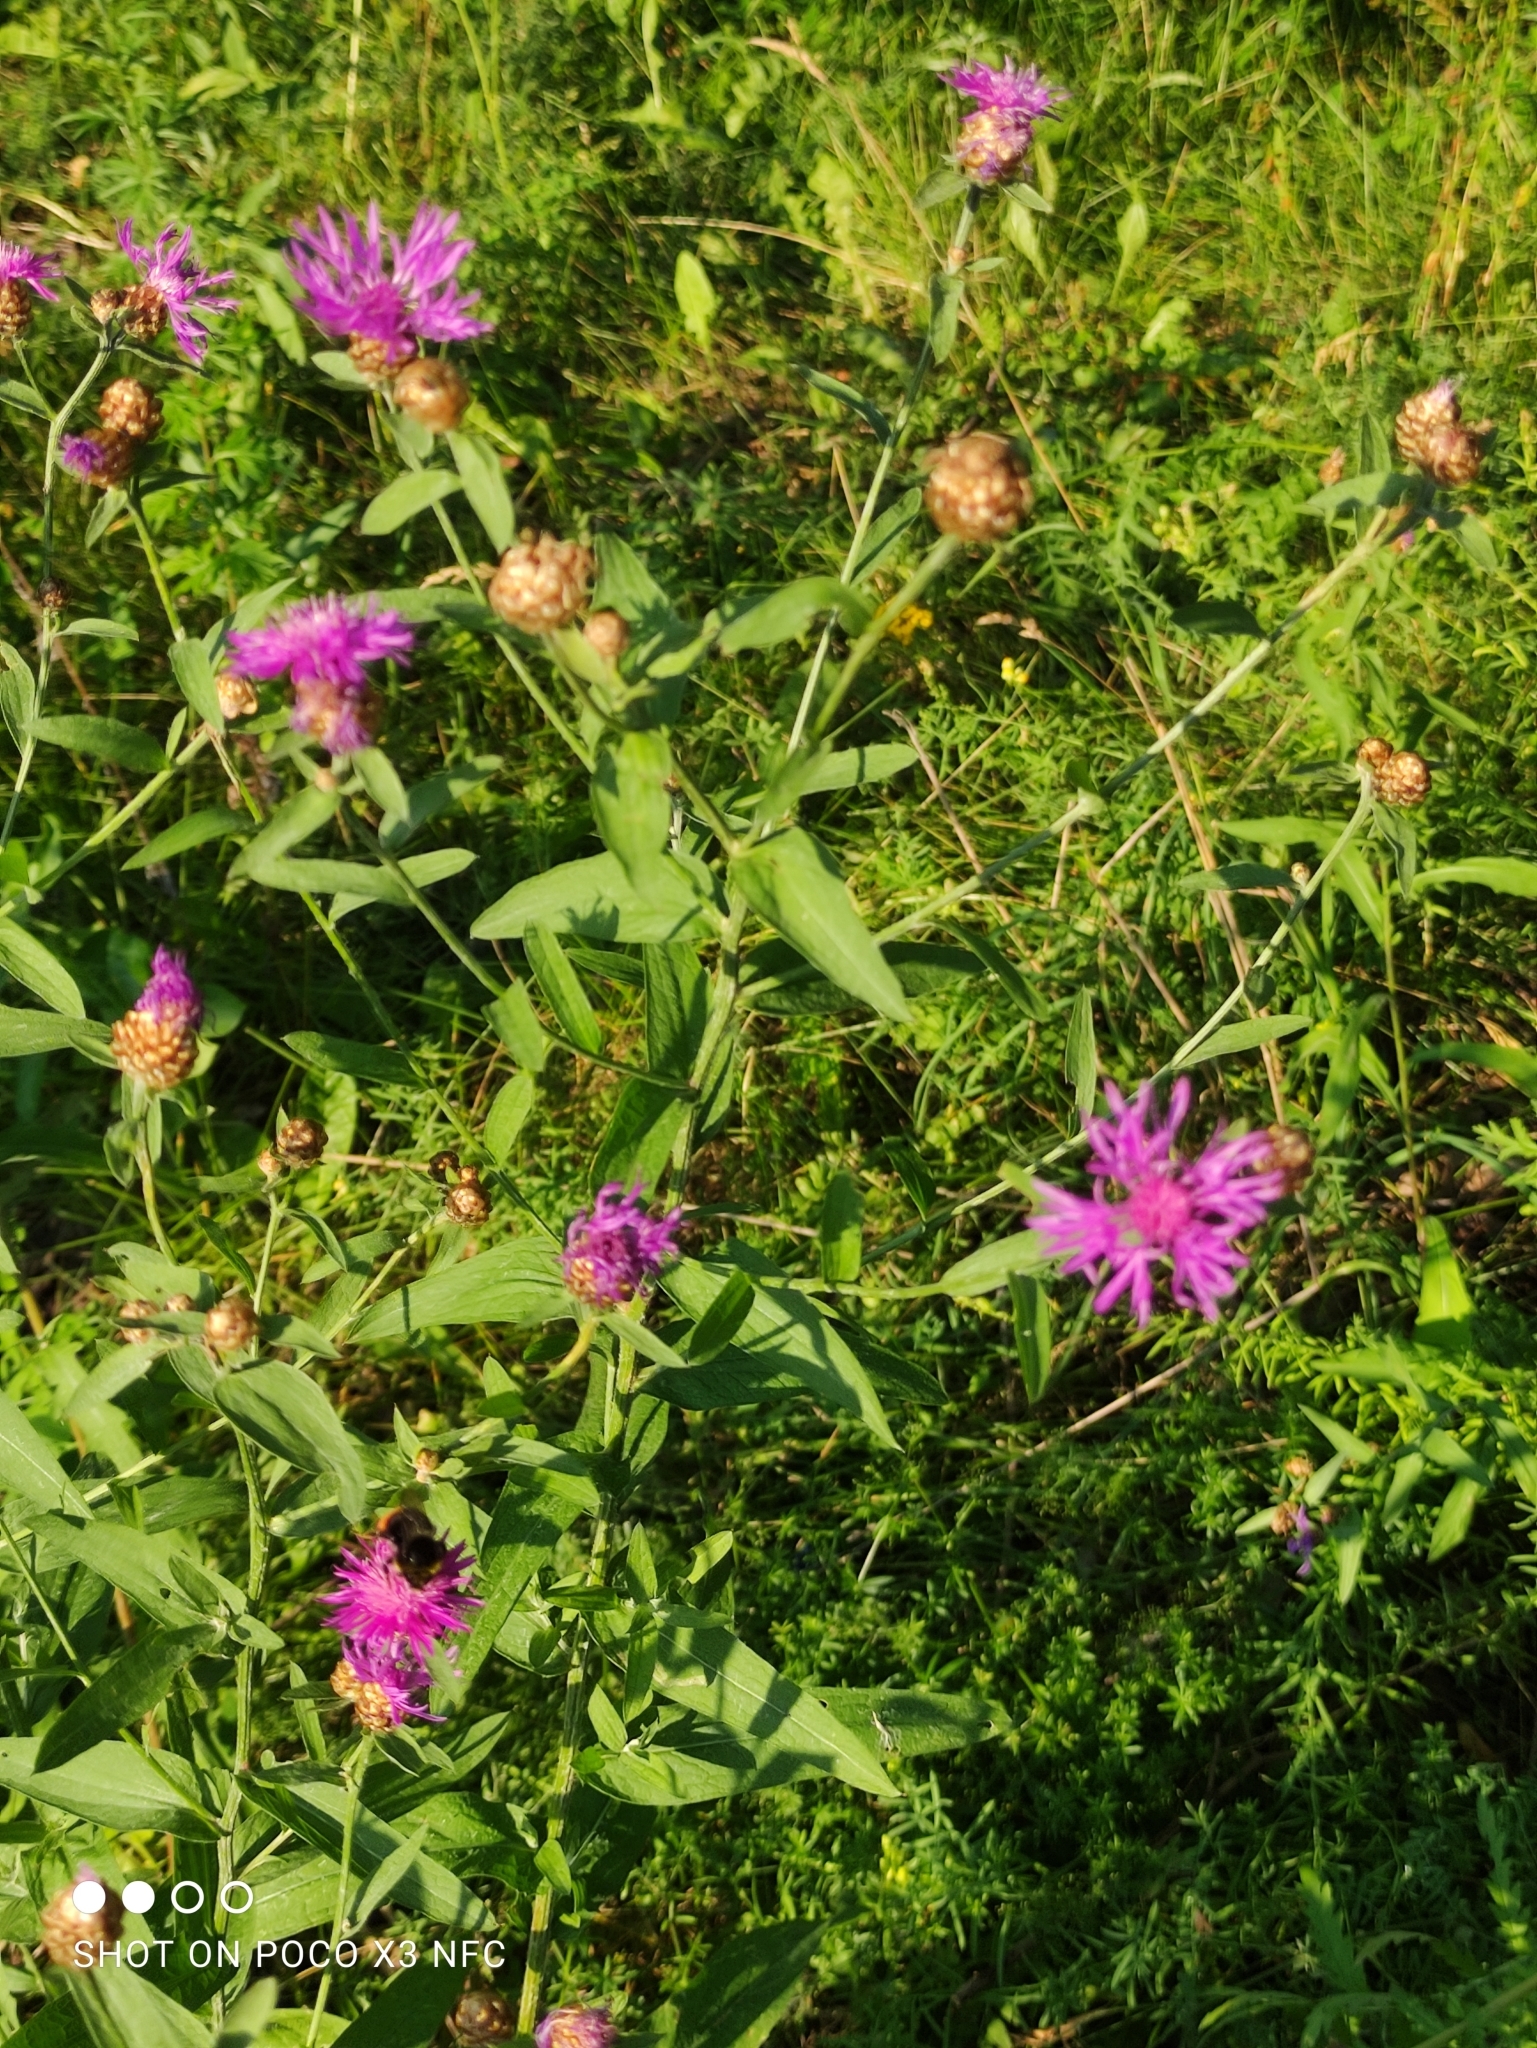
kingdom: Plantae
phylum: Tracheophyta
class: Magnoliopsida
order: Asterales
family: Asteraceae
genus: Centaurea
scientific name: Centaurea jacea
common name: Brown knapweed
